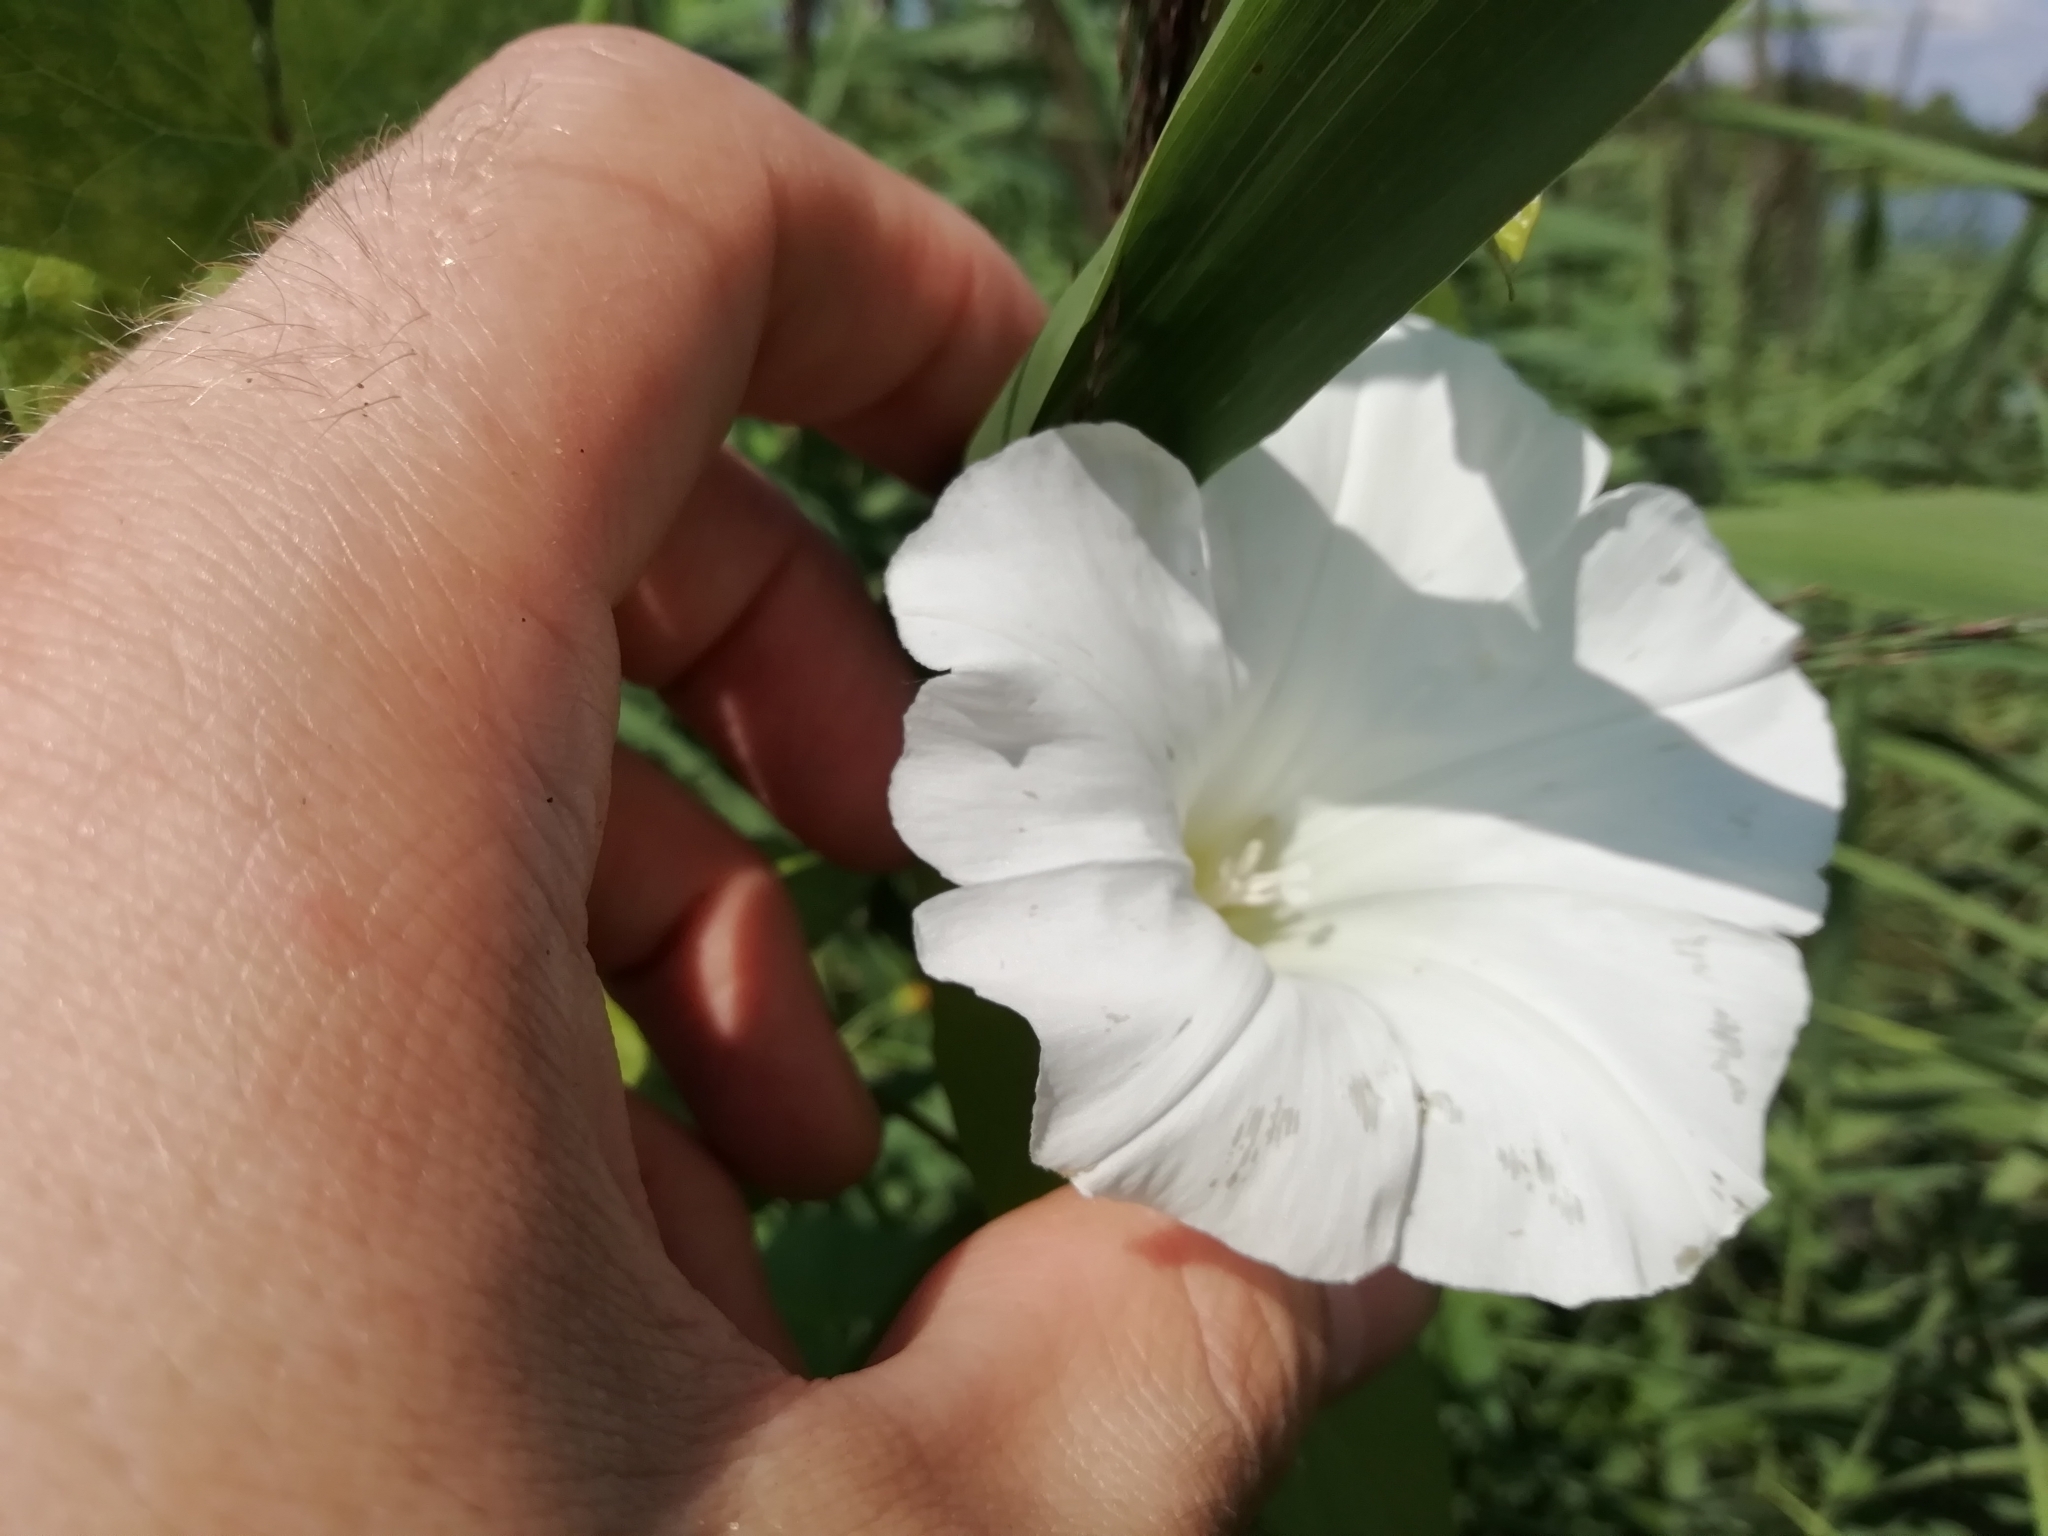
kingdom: Plantae
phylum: Tracheophyta
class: Magnoliopsida
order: Solanales
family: Convolvulaceae
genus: Calystegia
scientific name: Calystegia sepium
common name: Hedge bindweed
